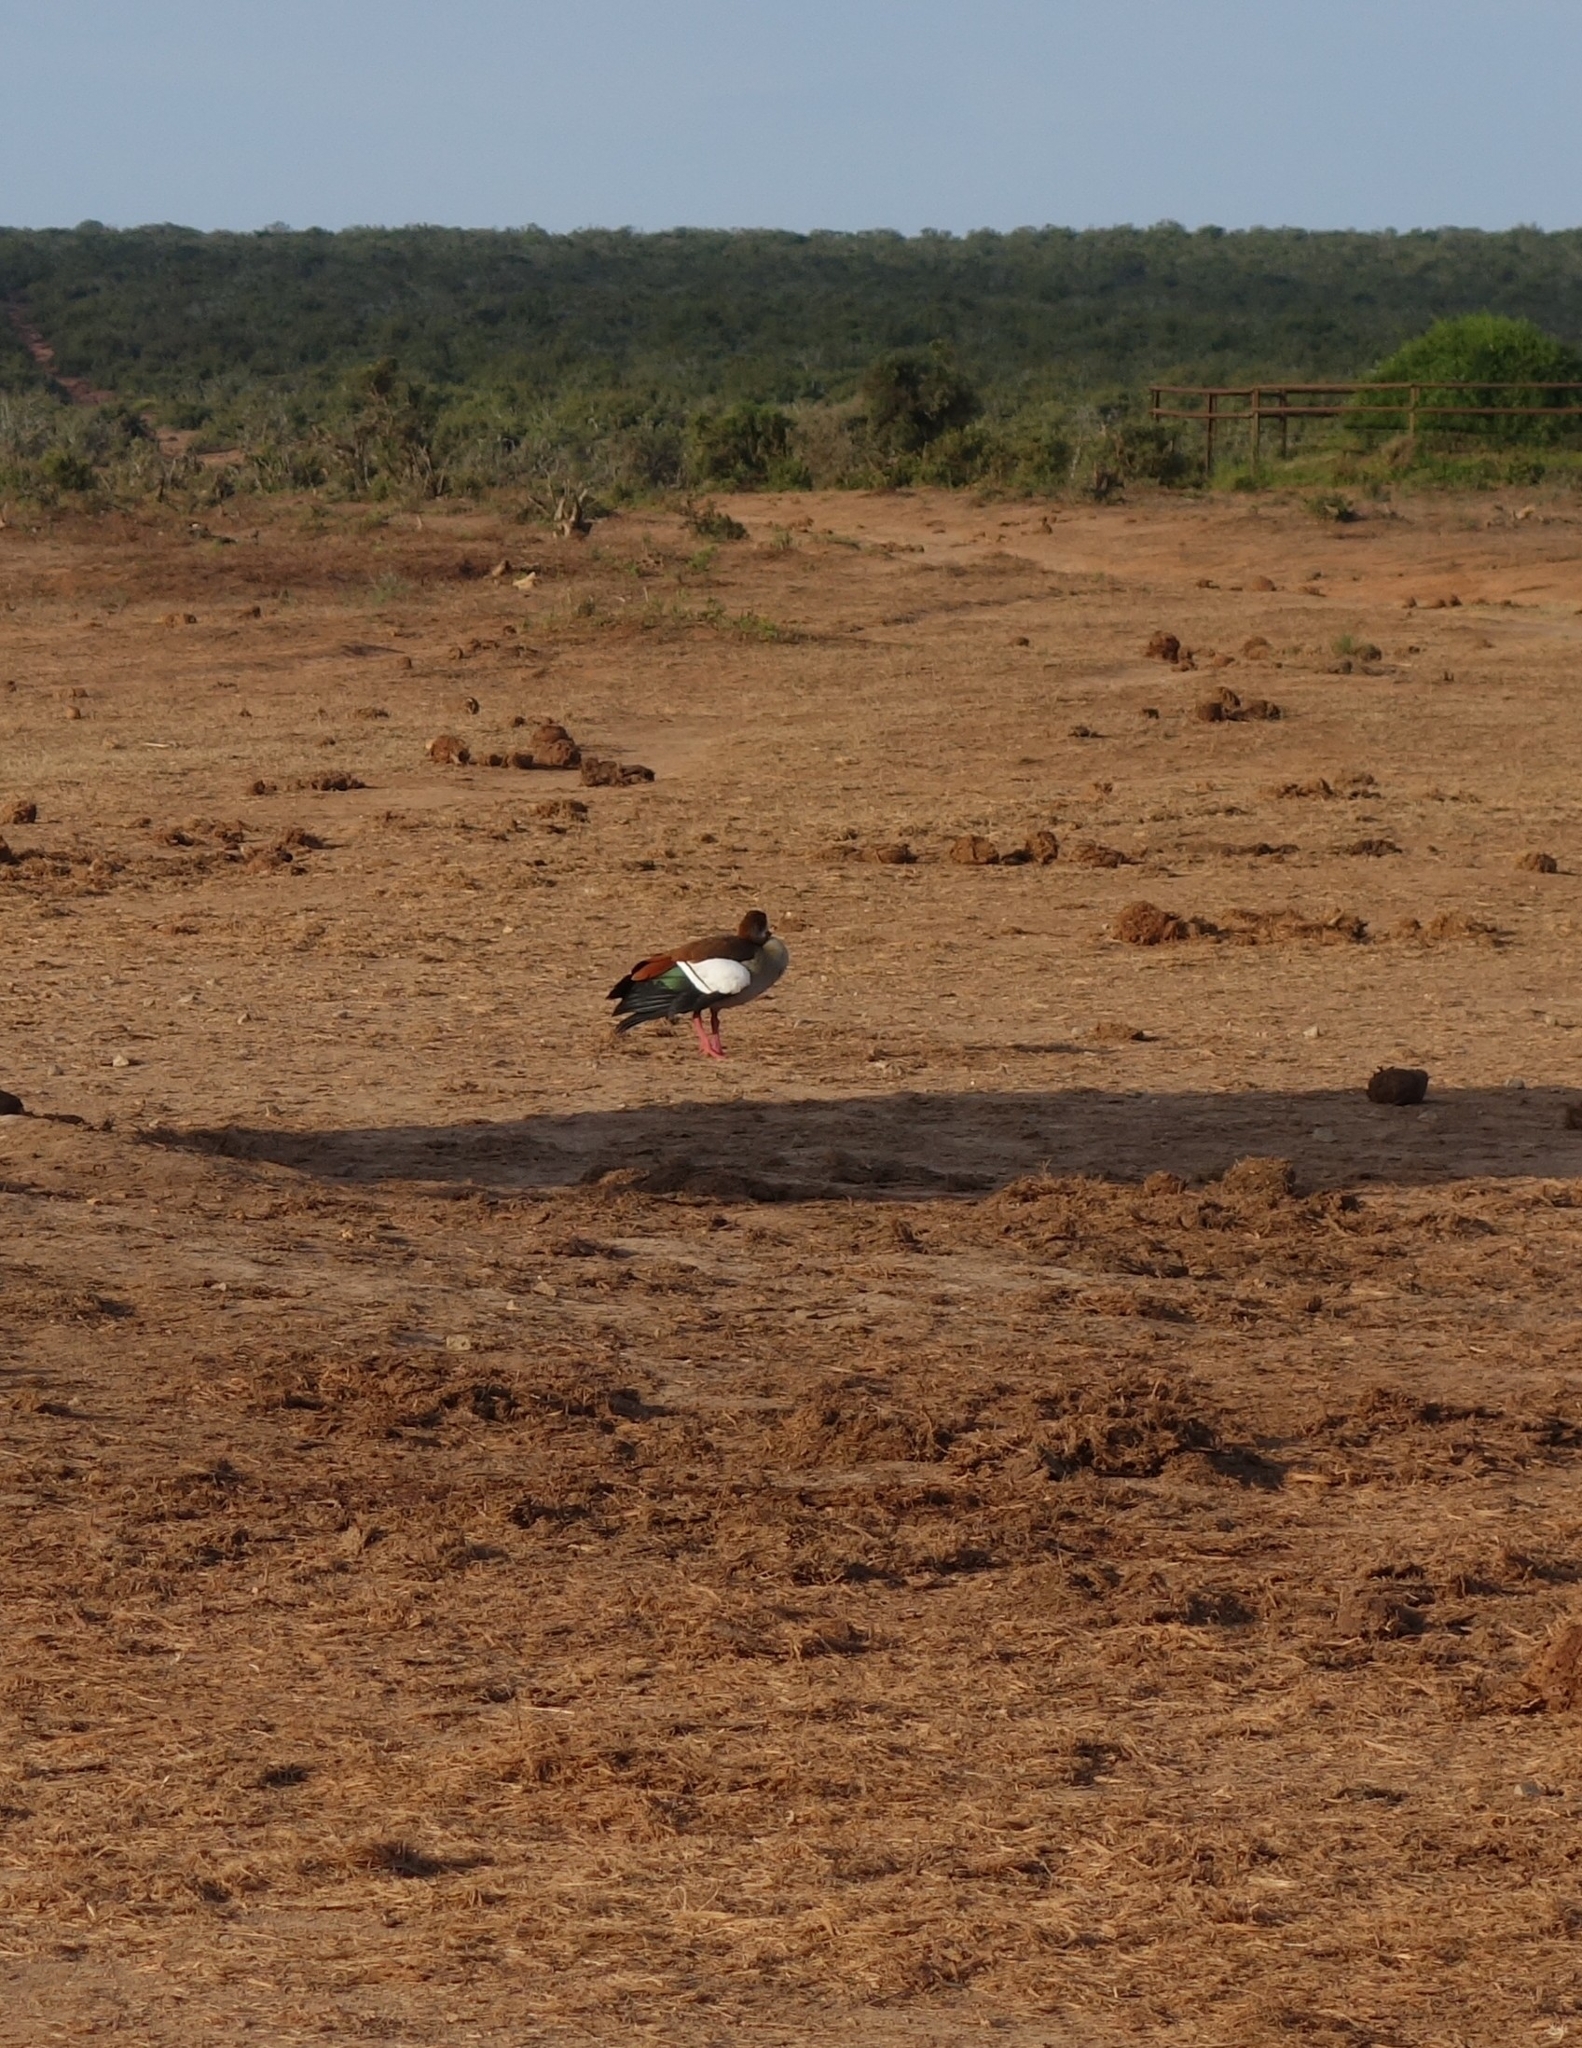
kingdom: Animalia
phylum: Chordata
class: Aves
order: Anseriformes
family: Anatidae
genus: Alopochen
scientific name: Alopochen aegyptiaca
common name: Egyptian goose
